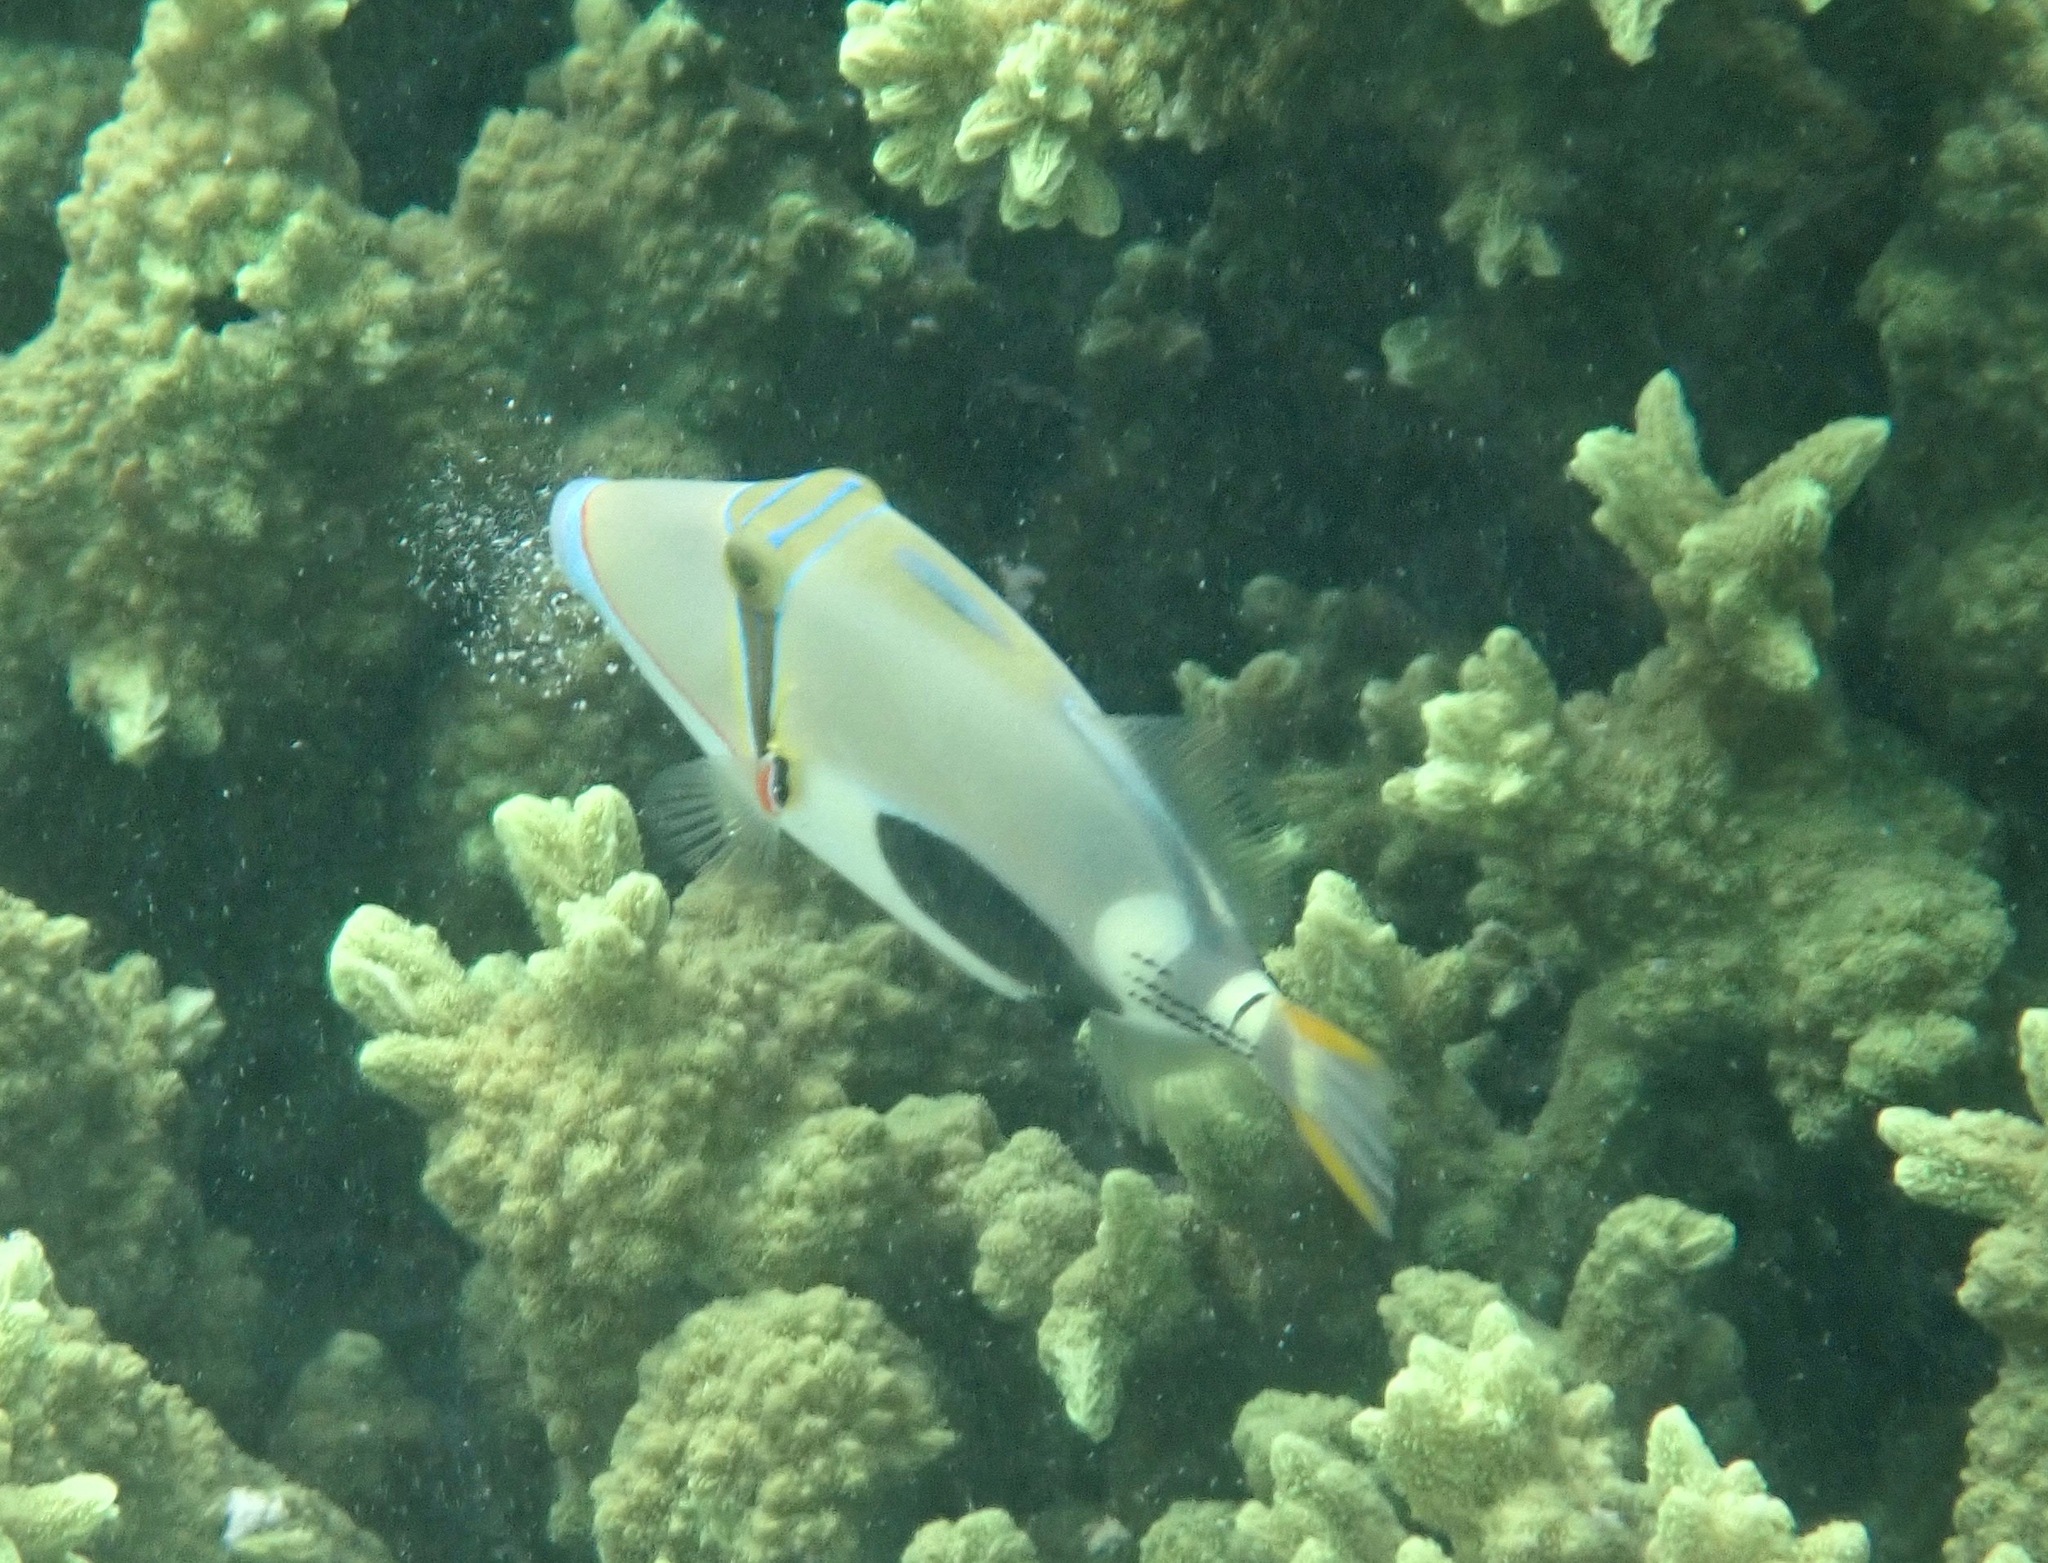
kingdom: Animalia
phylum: Chordata
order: Tetraodontiformes
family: Balistidae
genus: Rhinecanthus
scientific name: Rhinecanthus verrucosus
